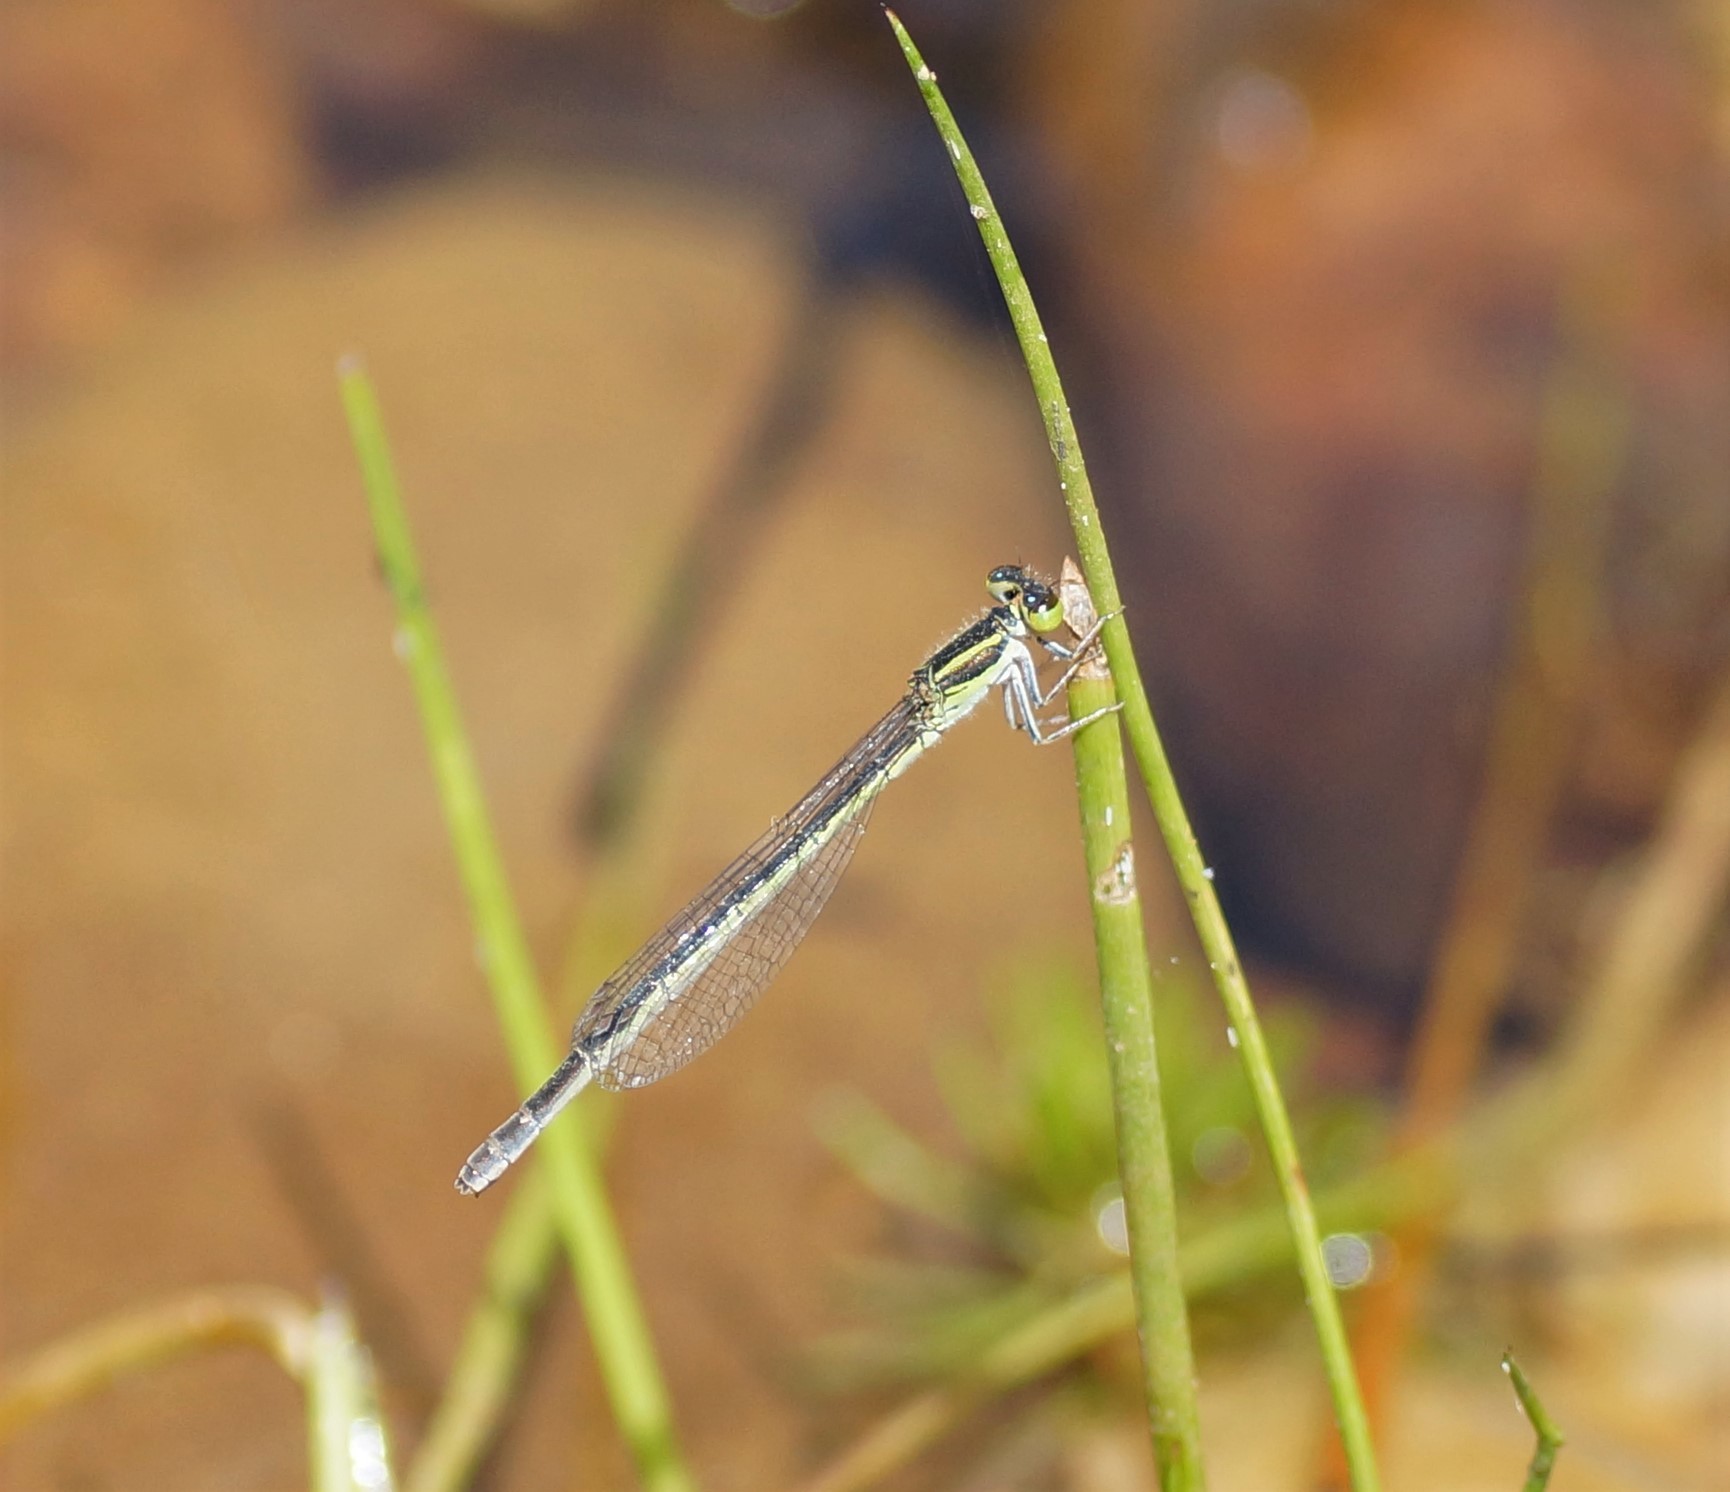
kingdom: Animalia
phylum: Arthropoda
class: Insecta
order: Odonata
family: Coenagrionidae
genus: Ischnura
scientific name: Ischnura aurora
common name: Gossamer damselfly
